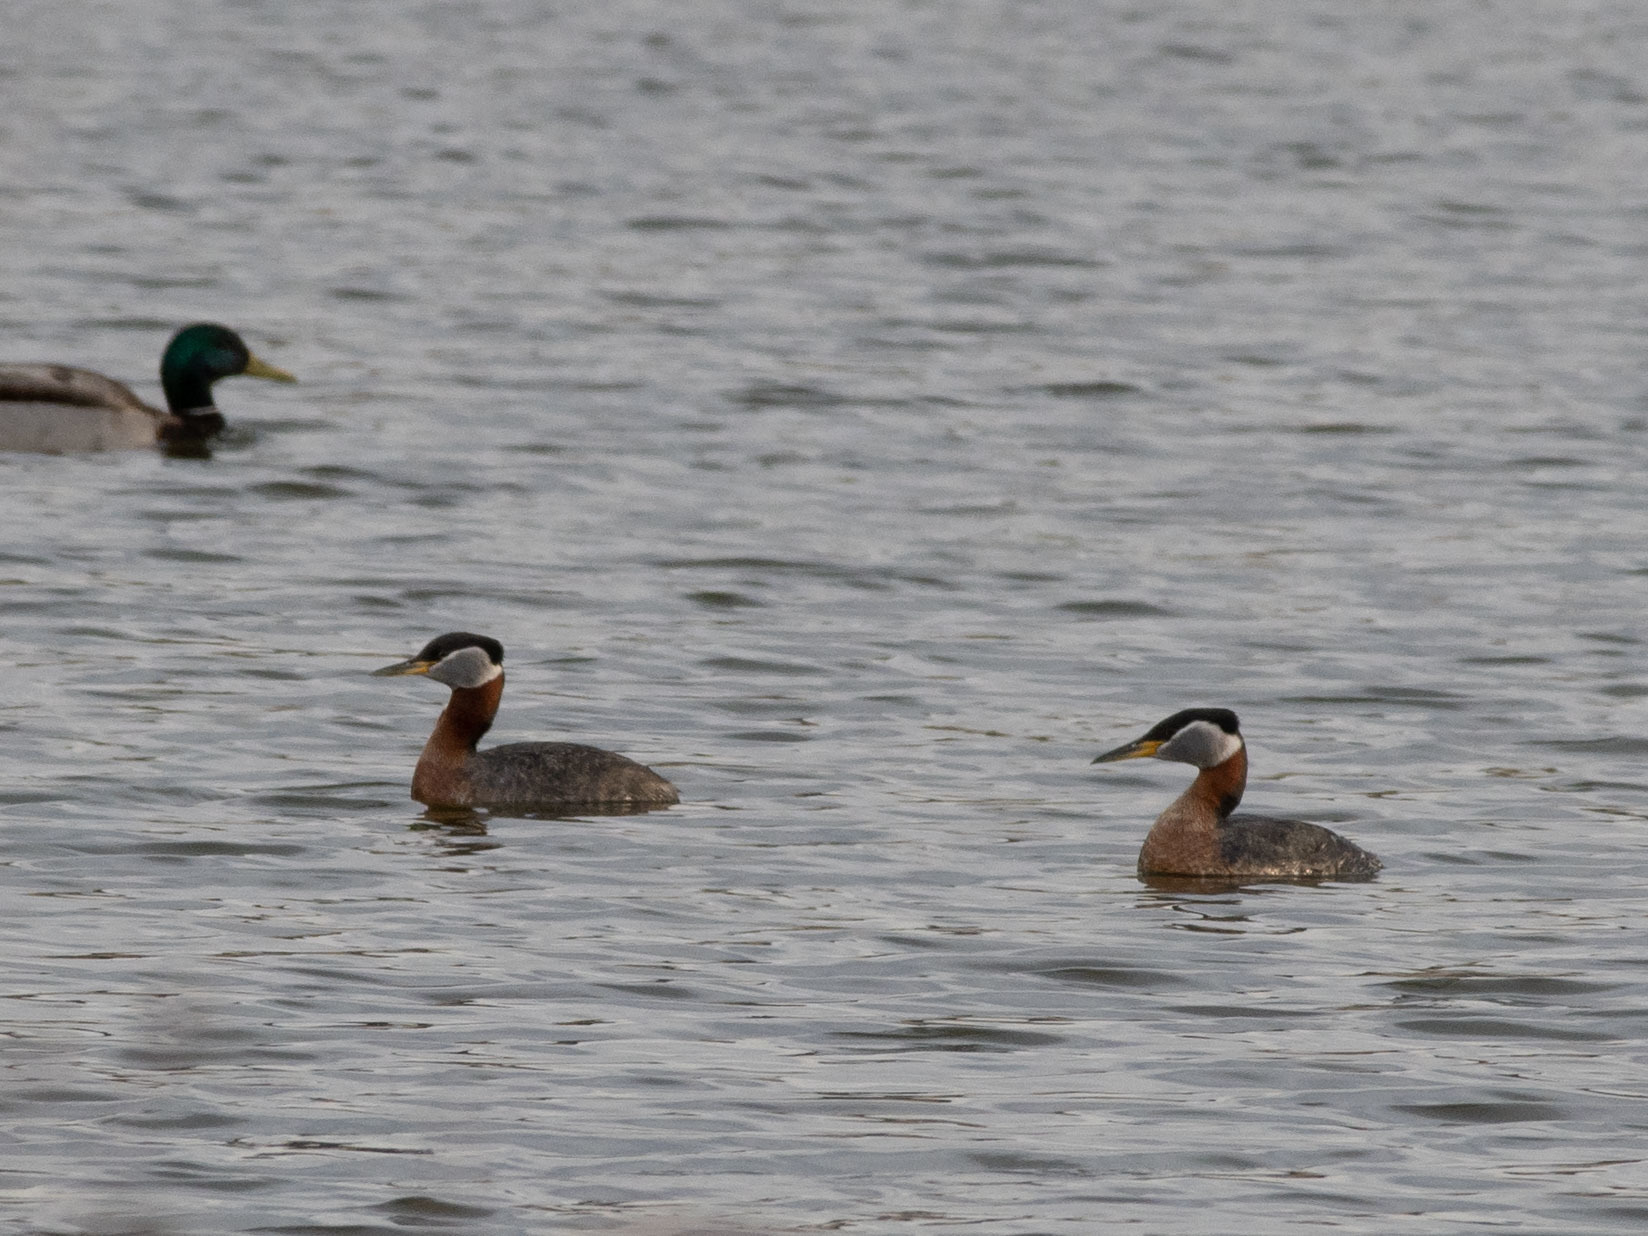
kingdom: Animalia
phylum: Chordata
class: Aves
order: Podicipediformes
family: Podicipedidae
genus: Podiceps
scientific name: Podiceps grisegena
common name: Red-necked grebe
